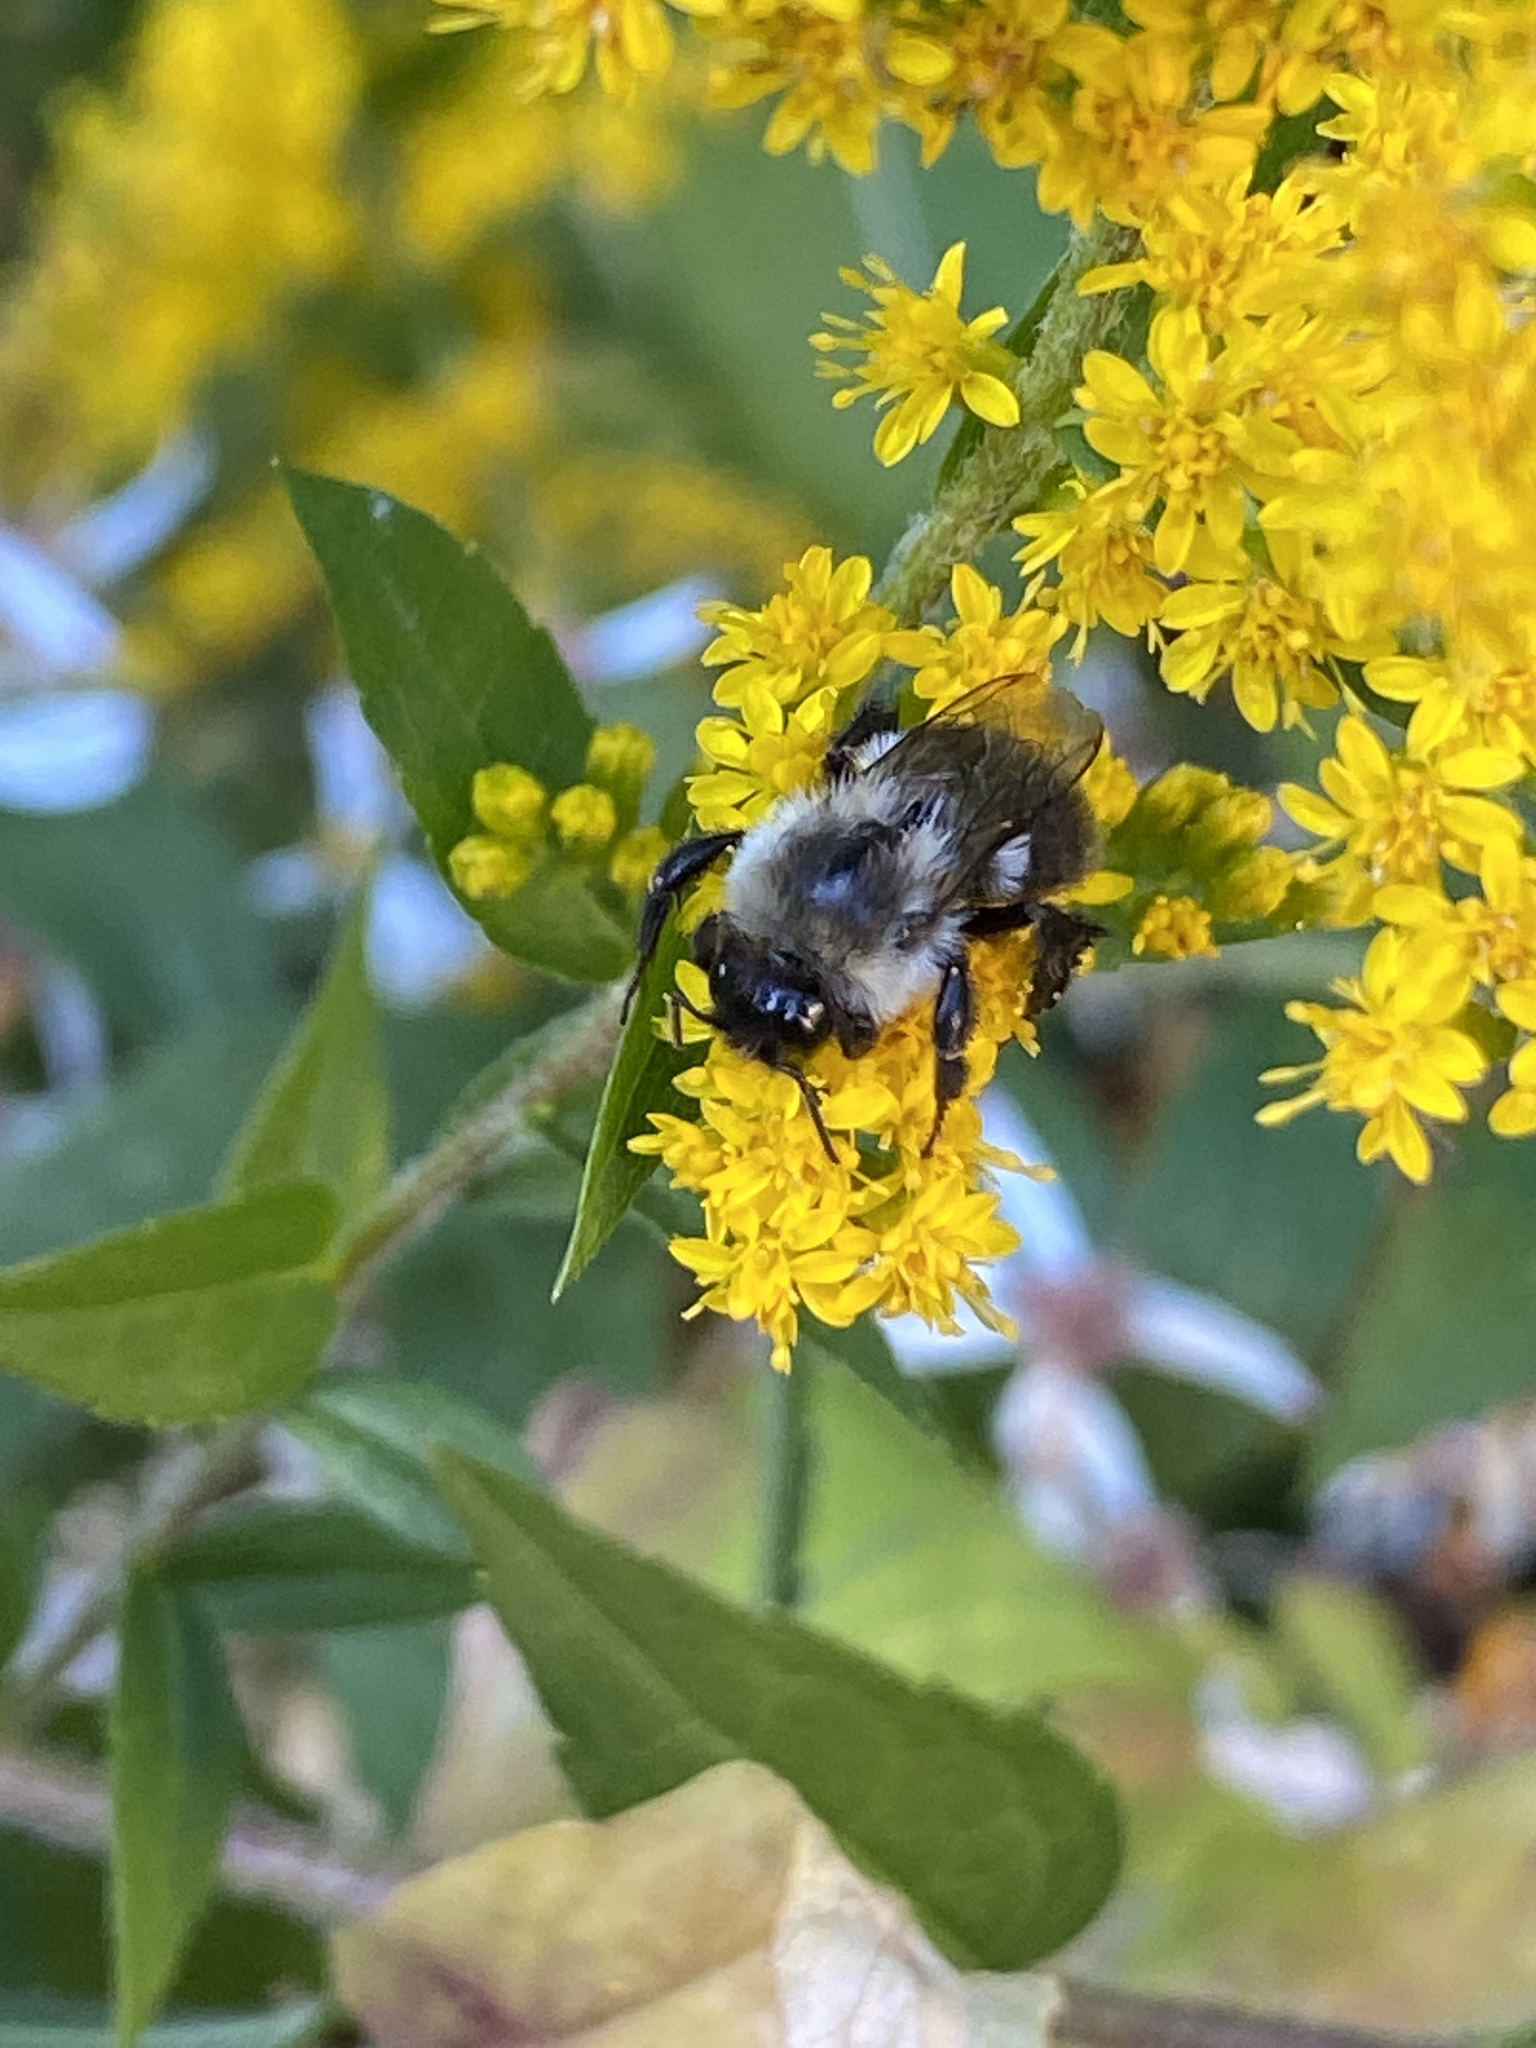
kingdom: Animalia
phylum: Arthropoda
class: Insecta
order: Hymenoptera
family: Apidae
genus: Bombus
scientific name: Bombus impatiens
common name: Common eastern bumble bee
